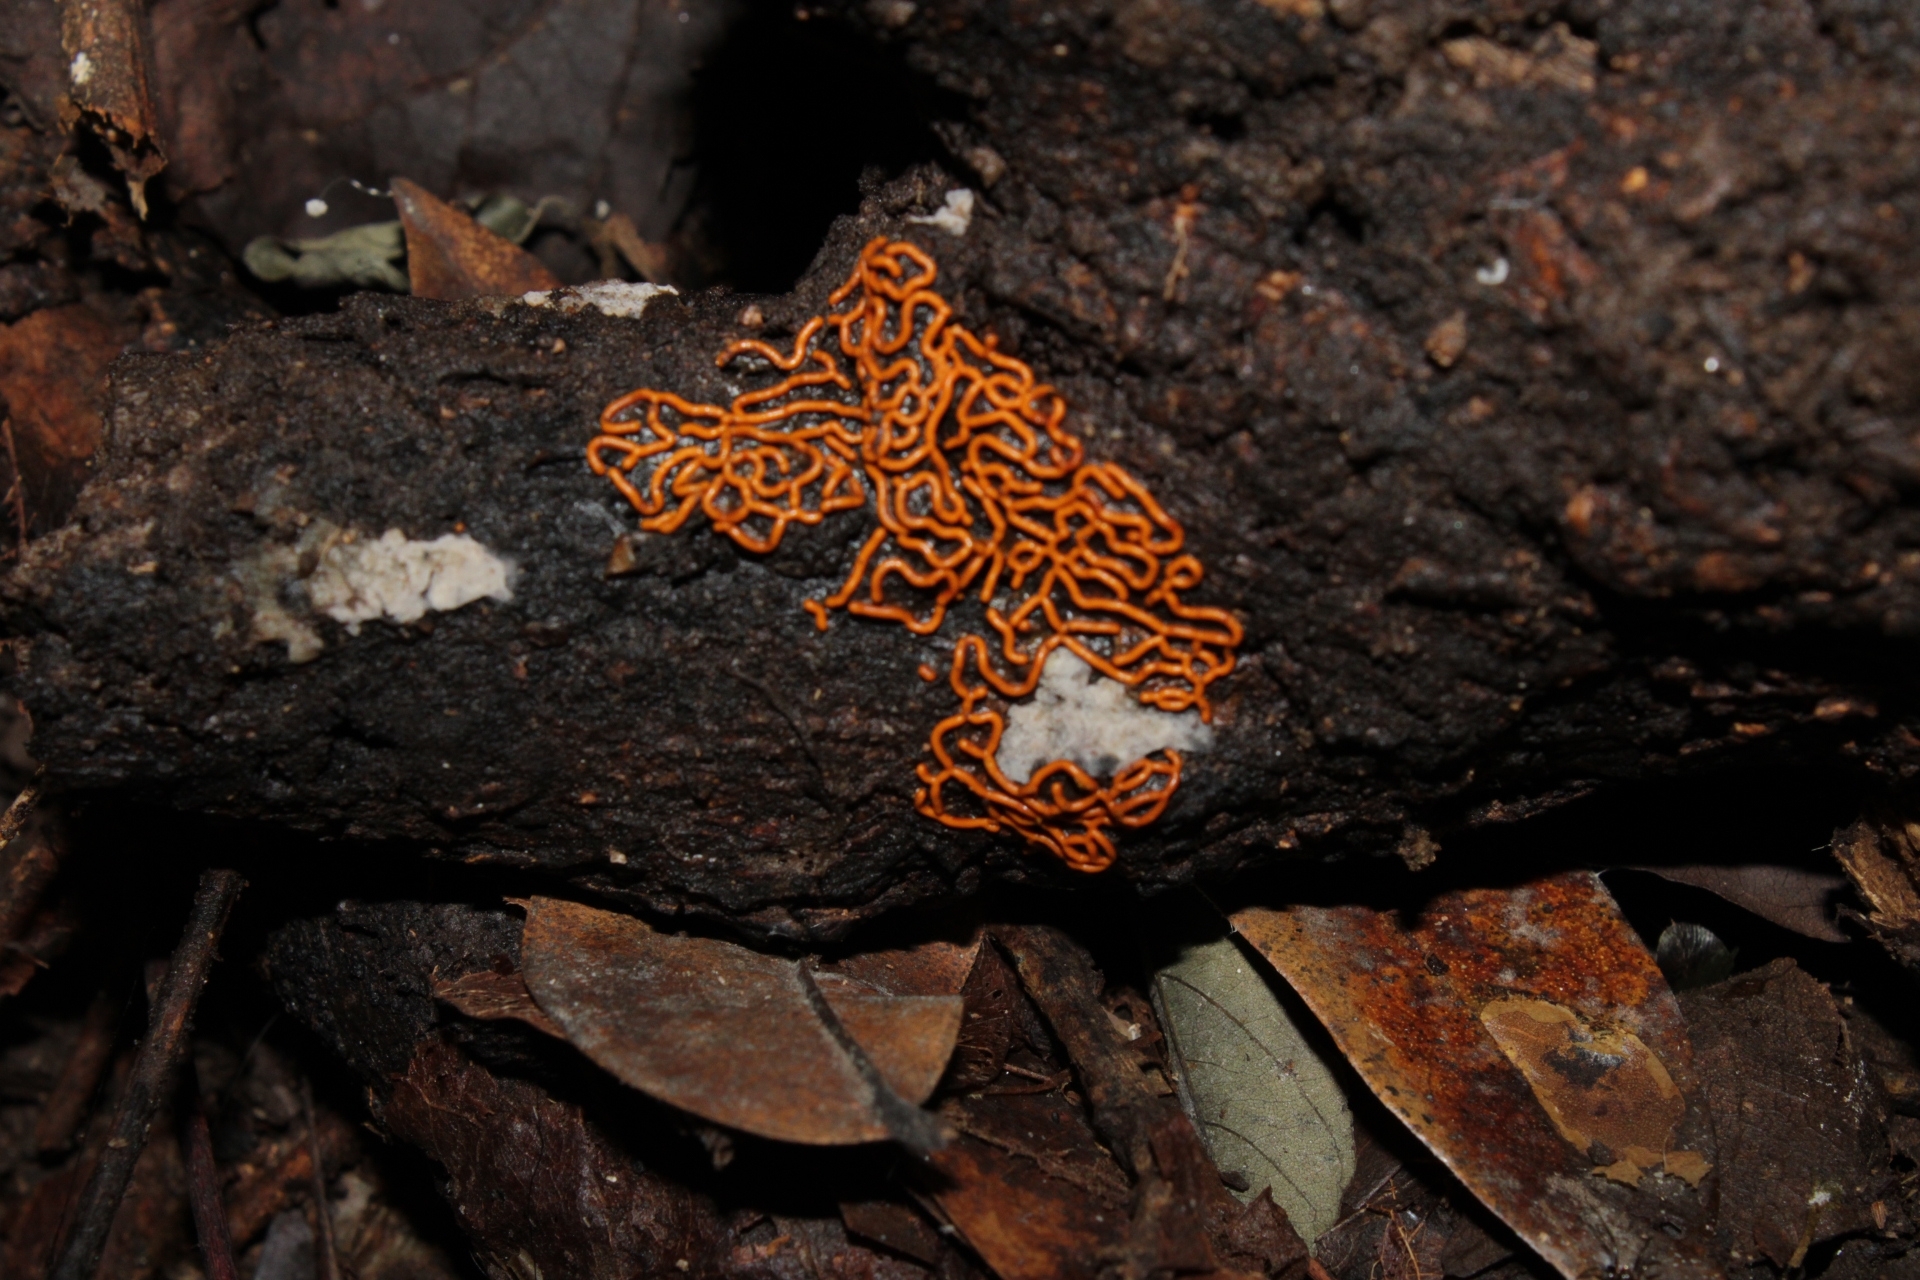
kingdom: Protozoa
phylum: Mycetozoa
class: Myxomycetes
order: Trichiales
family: Arcyriaceae
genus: Hemitrichia
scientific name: Hemitrichia serpula
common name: Pretzel slime mold
